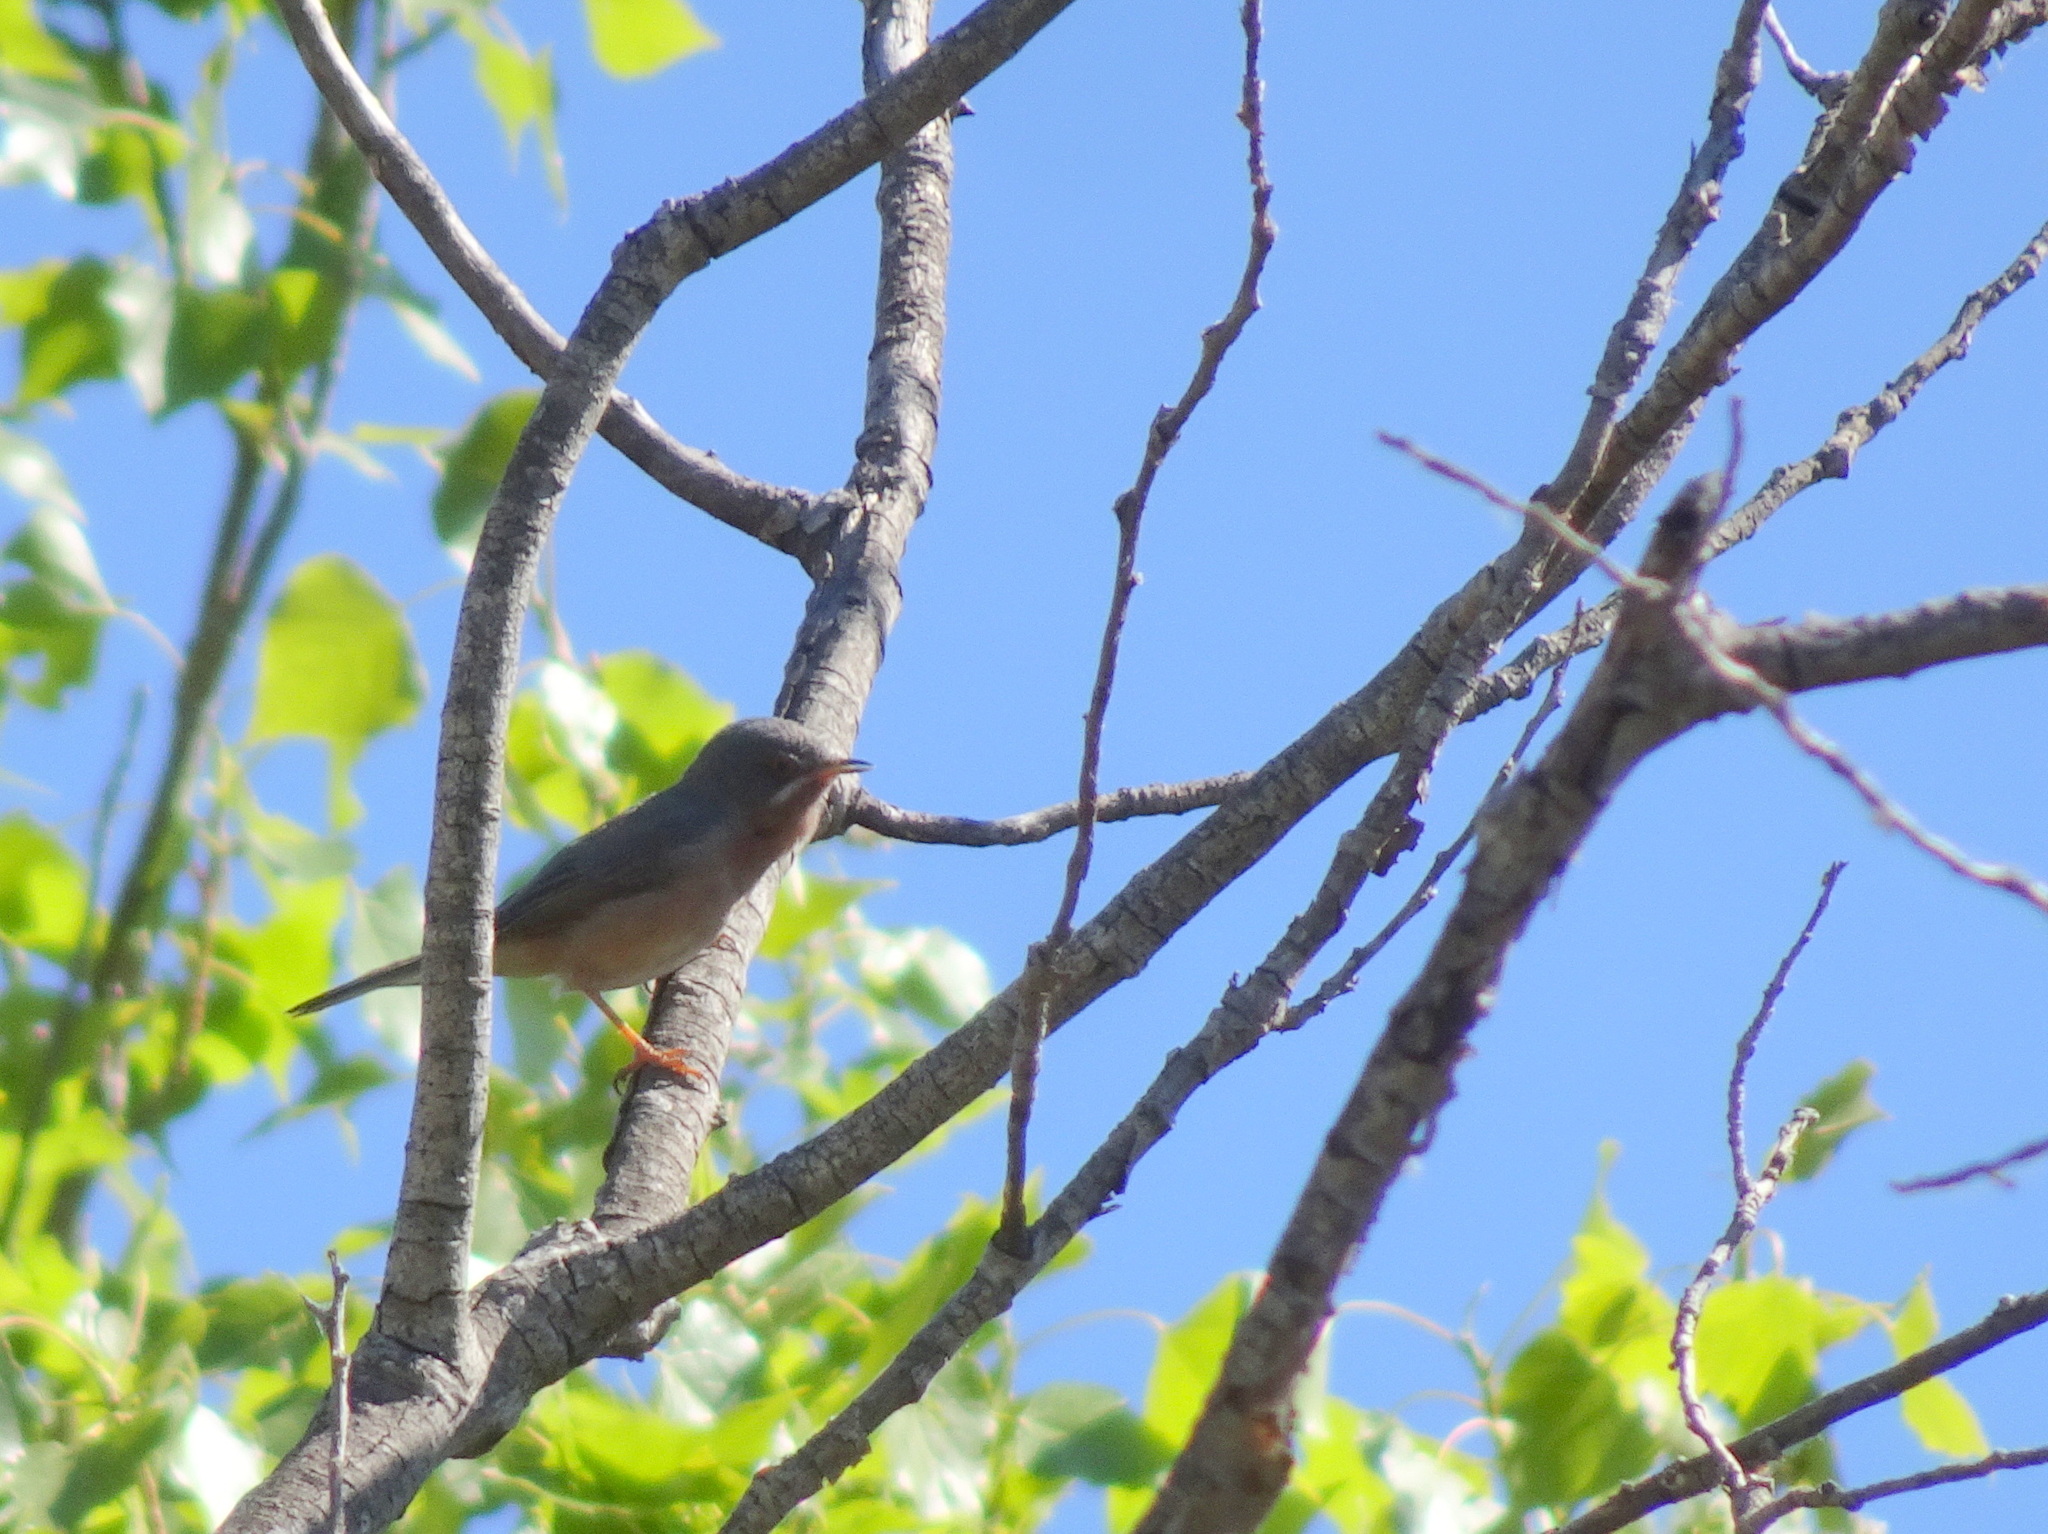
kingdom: Animalia
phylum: Chordata
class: Aves
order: Passeriformes
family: Sylviidae
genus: Curruca
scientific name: Curruca iberiae
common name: Western subalpine warbler
